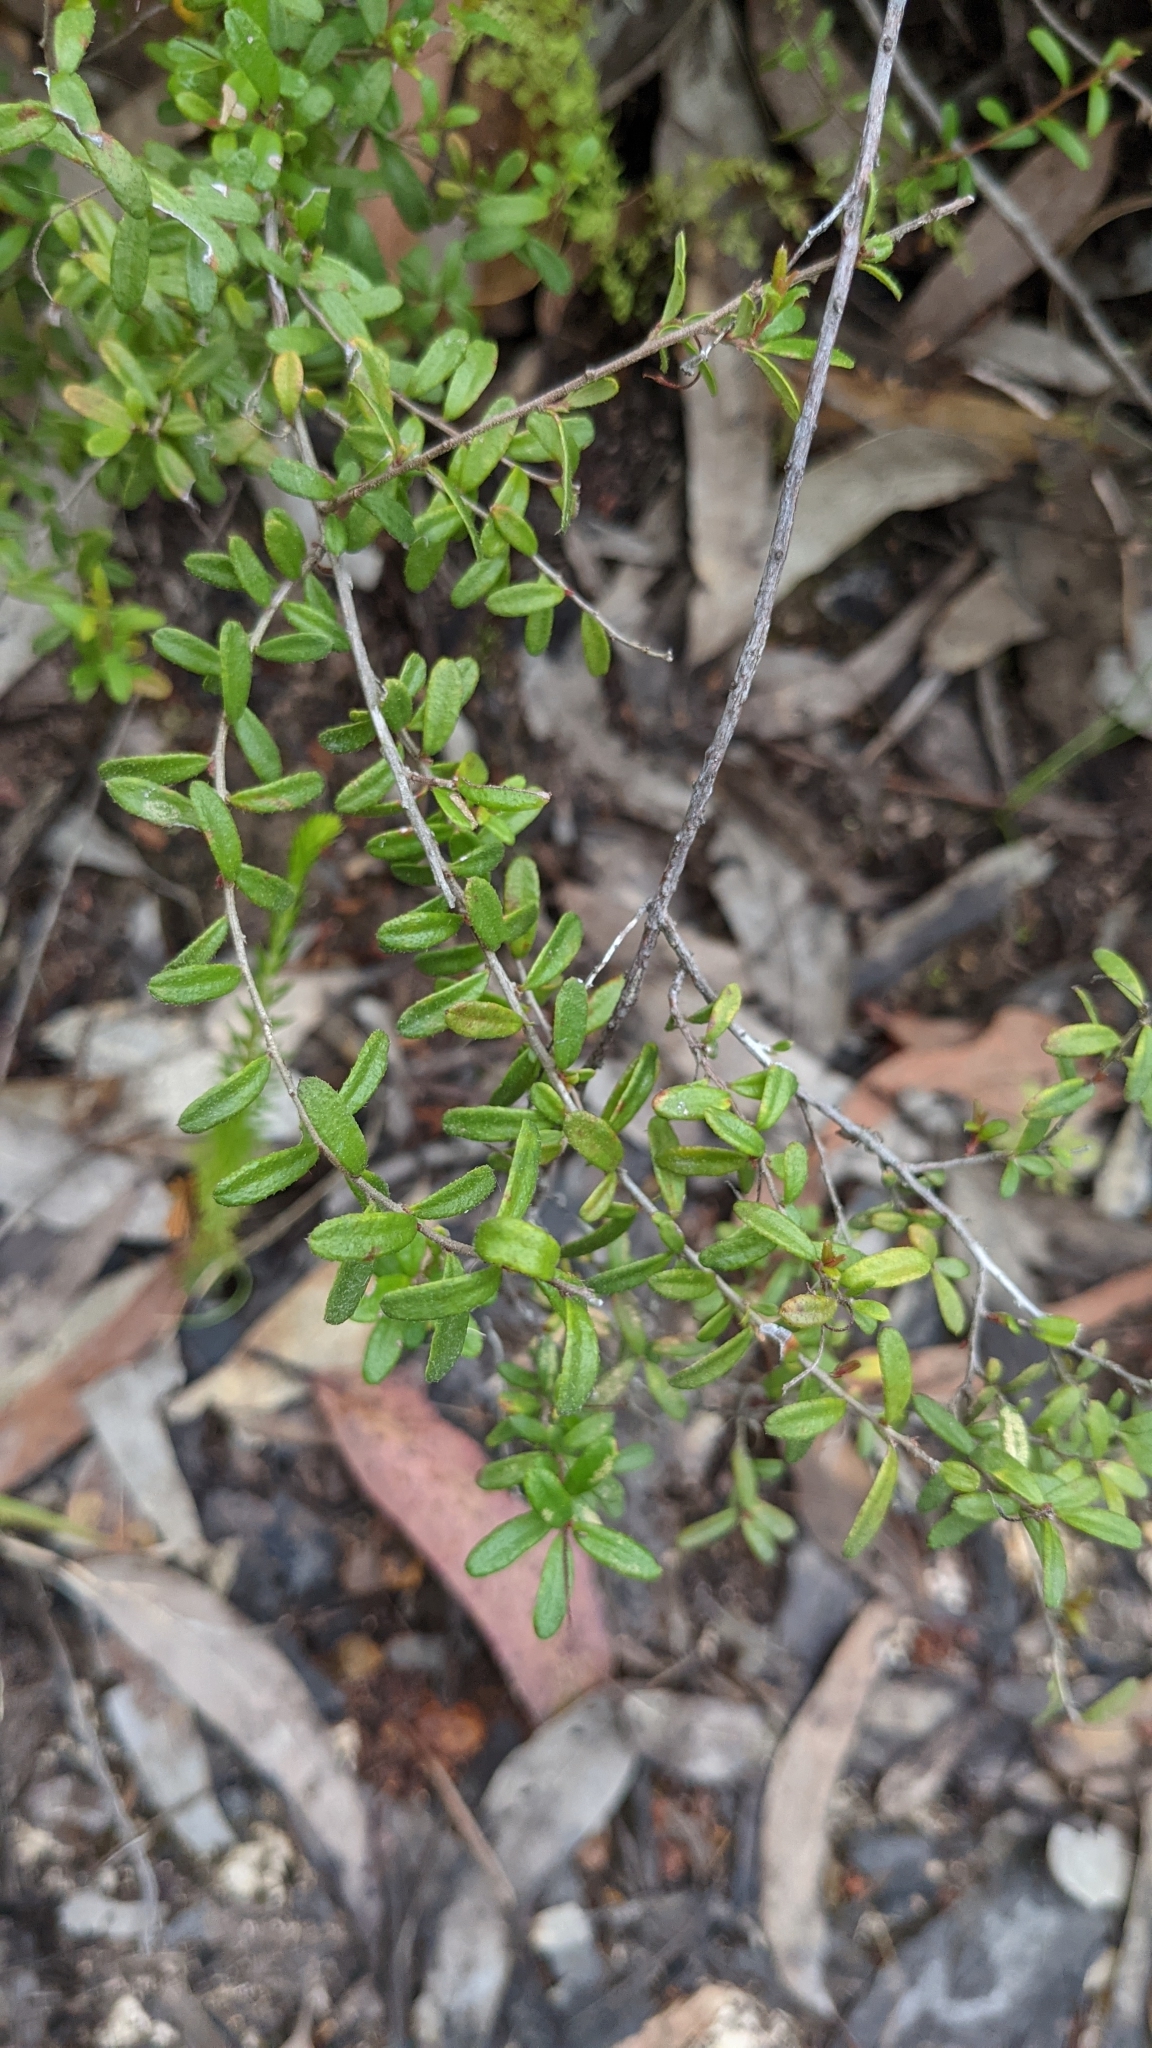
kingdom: Plantae
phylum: Tracheophyta
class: Magnoliopsida
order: Dilleniales
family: Dilleniaceae
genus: Hibbertia
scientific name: Hibbertia empetrifolia
